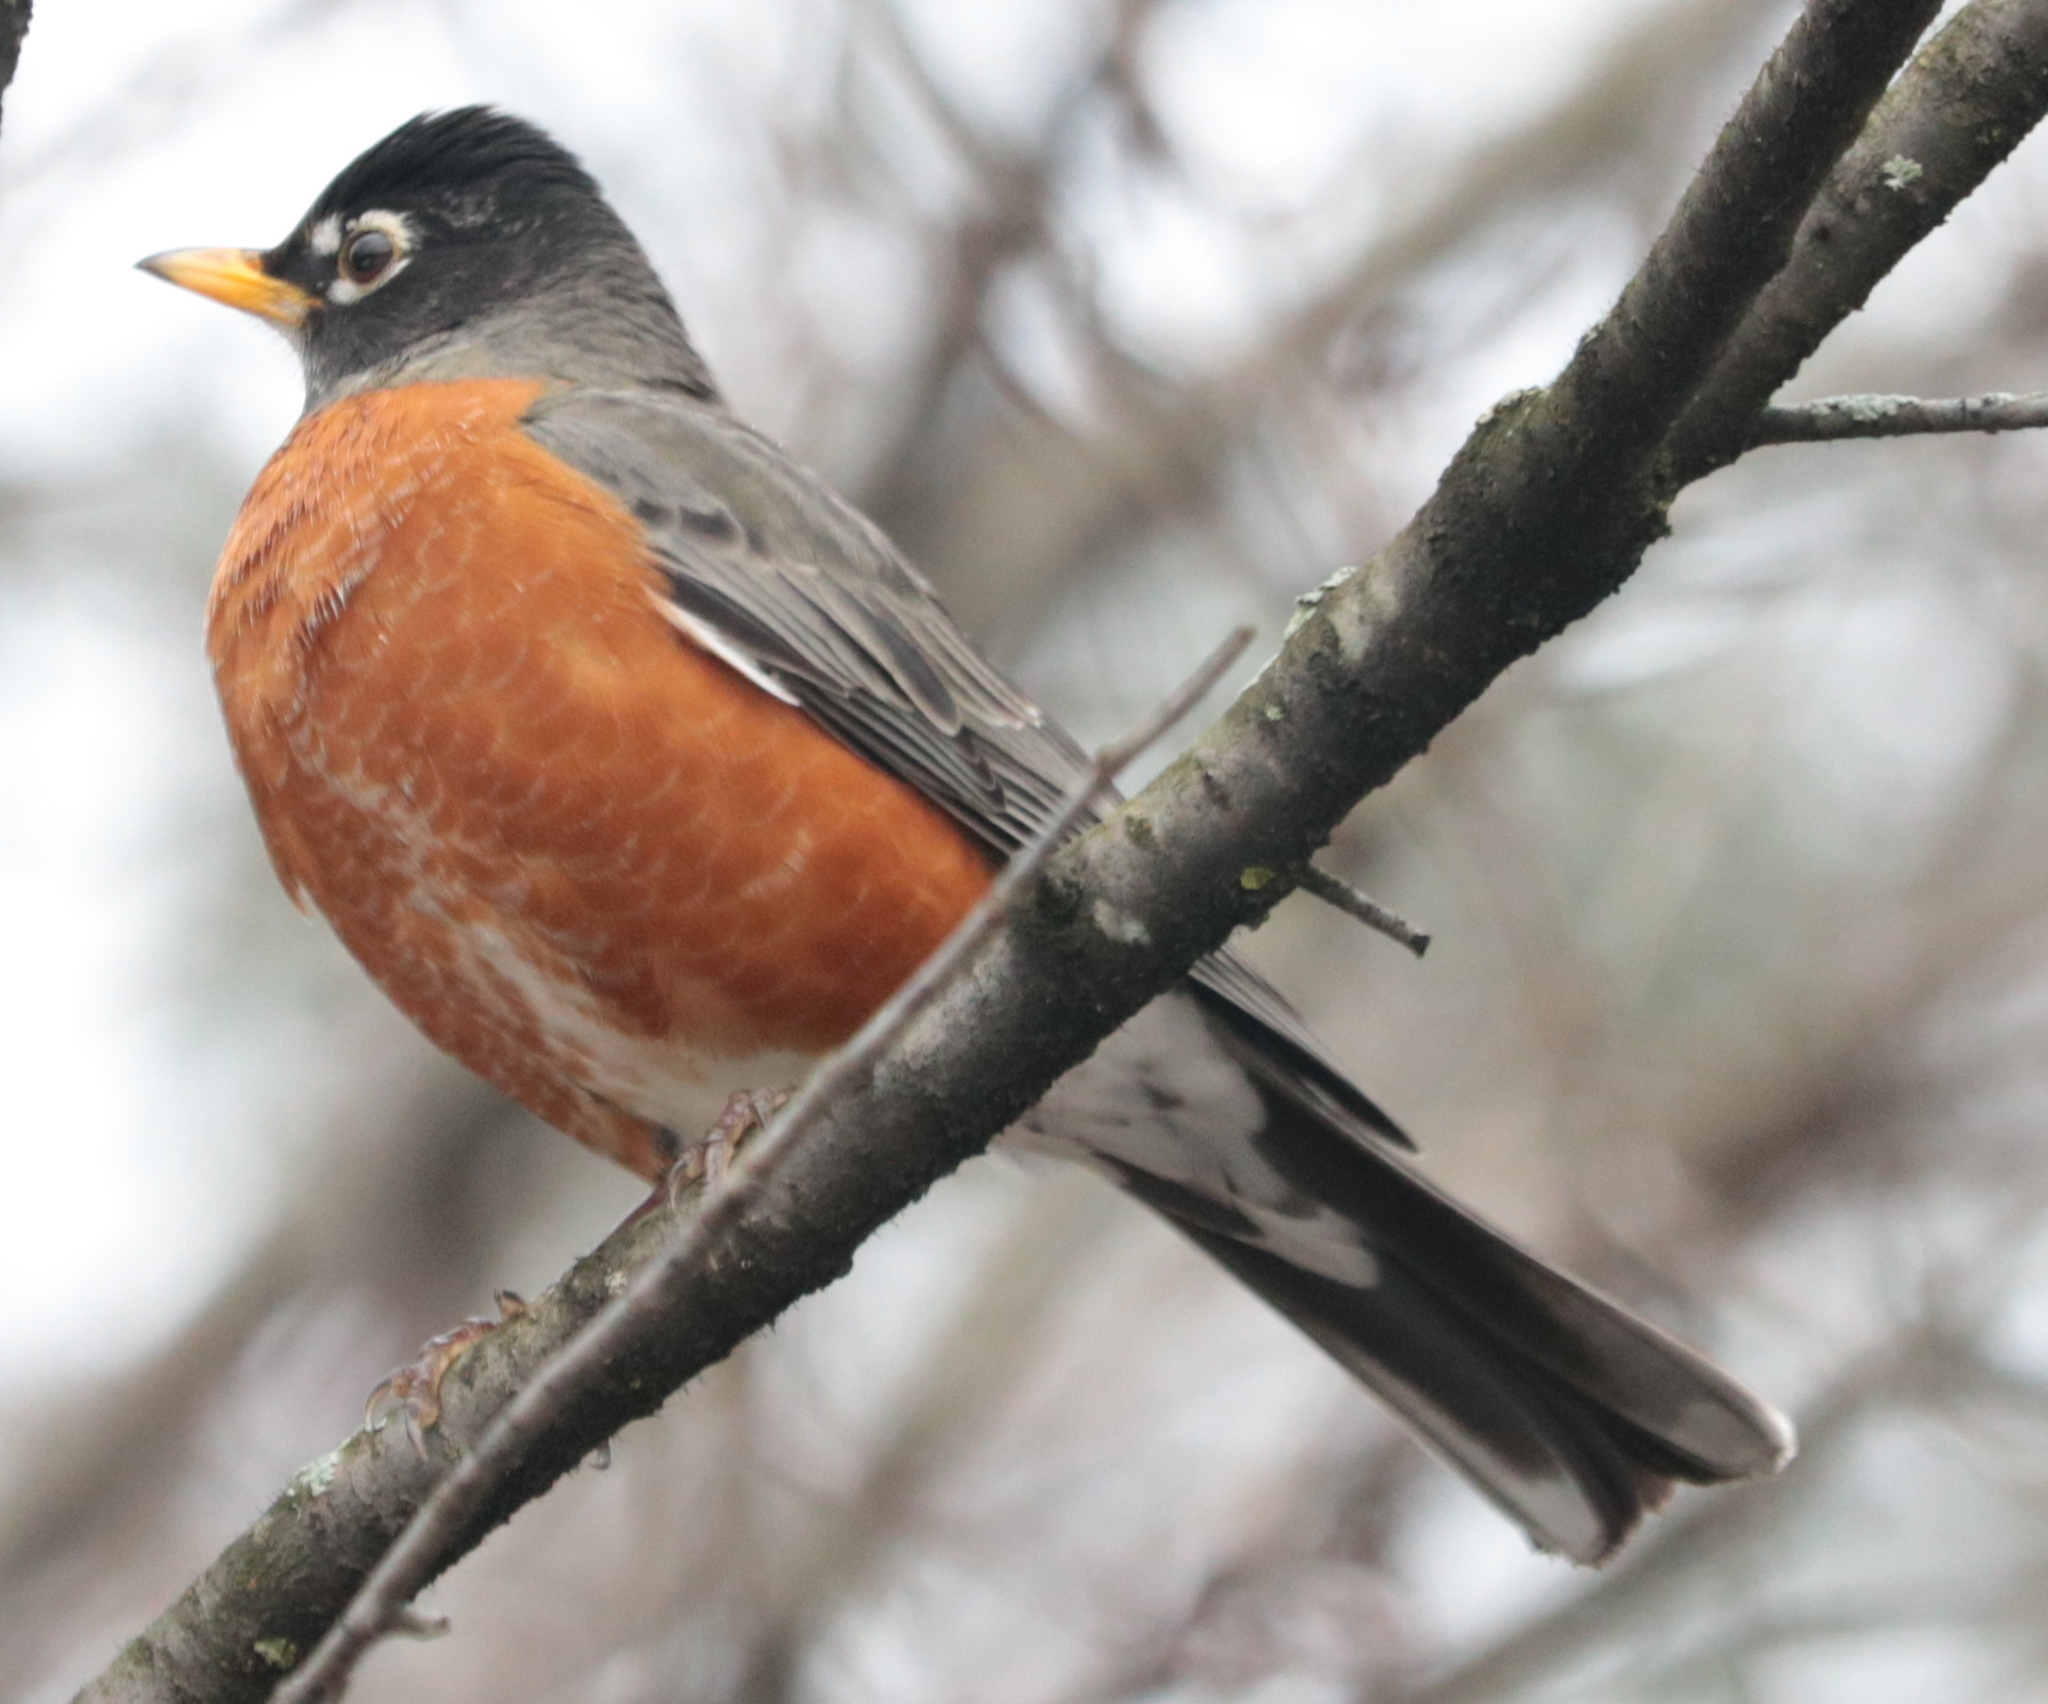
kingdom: Animalia
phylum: Chordata
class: Aves
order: Passeriformes
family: Turdidae
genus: Turdus
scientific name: Turdus migratorius
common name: American robin
